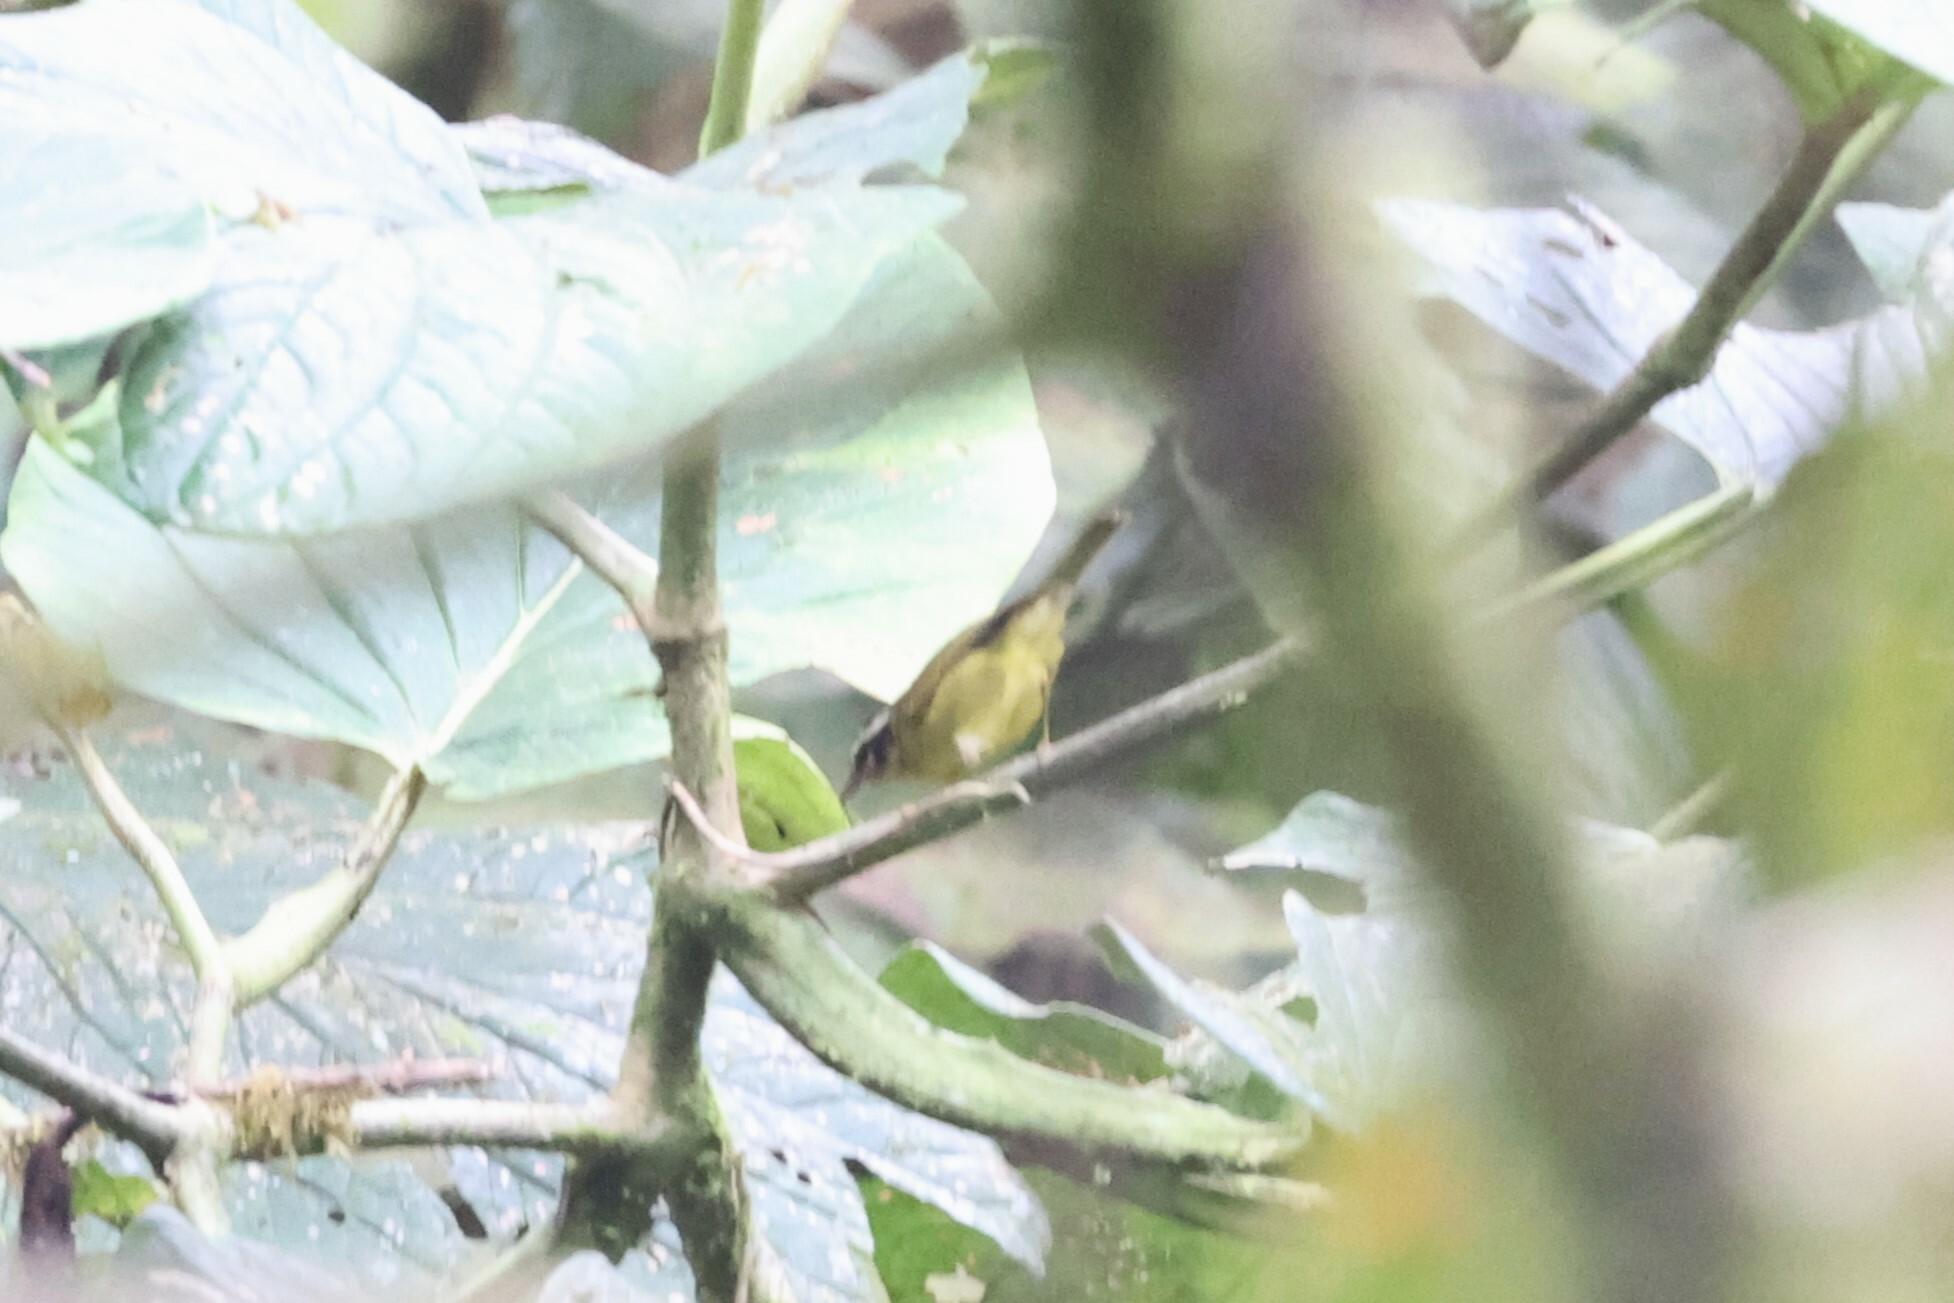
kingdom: Animalia
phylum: Chordata
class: Aves
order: Passeriformes
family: Parulidae
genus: Basileuterus
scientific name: Basileuterus tristriatus
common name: Three-striped warbler
